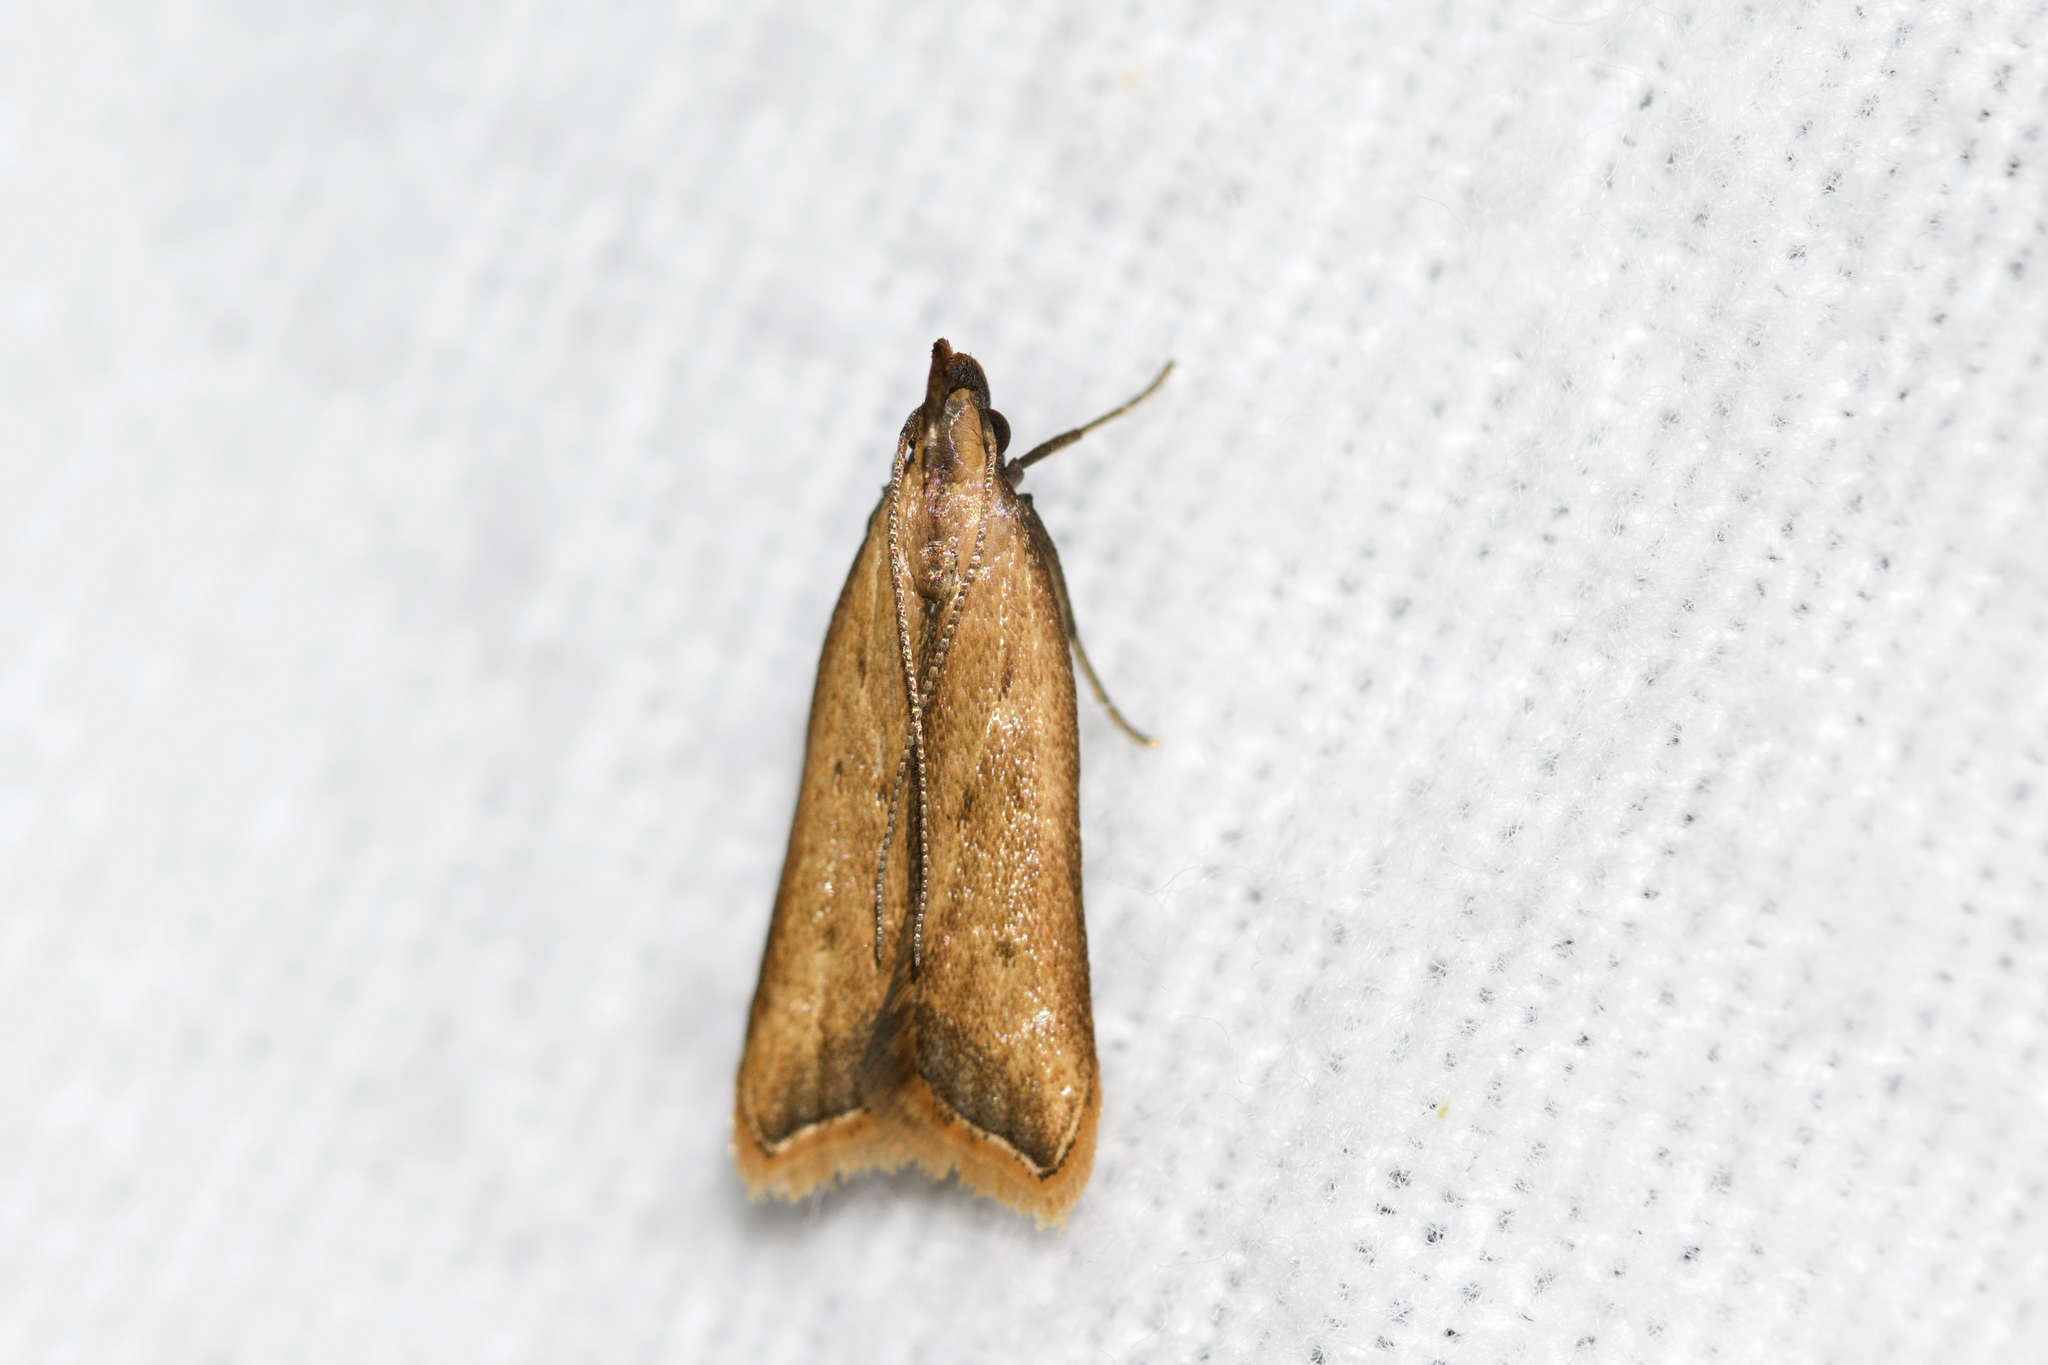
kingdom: Animalia
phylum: Arthropoda
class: Insecta
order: Lepidoptera
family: Gelechiidae
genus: Dichomeris
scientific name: Dichomeris heriguronis
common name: Black-edged dichomeris moth
